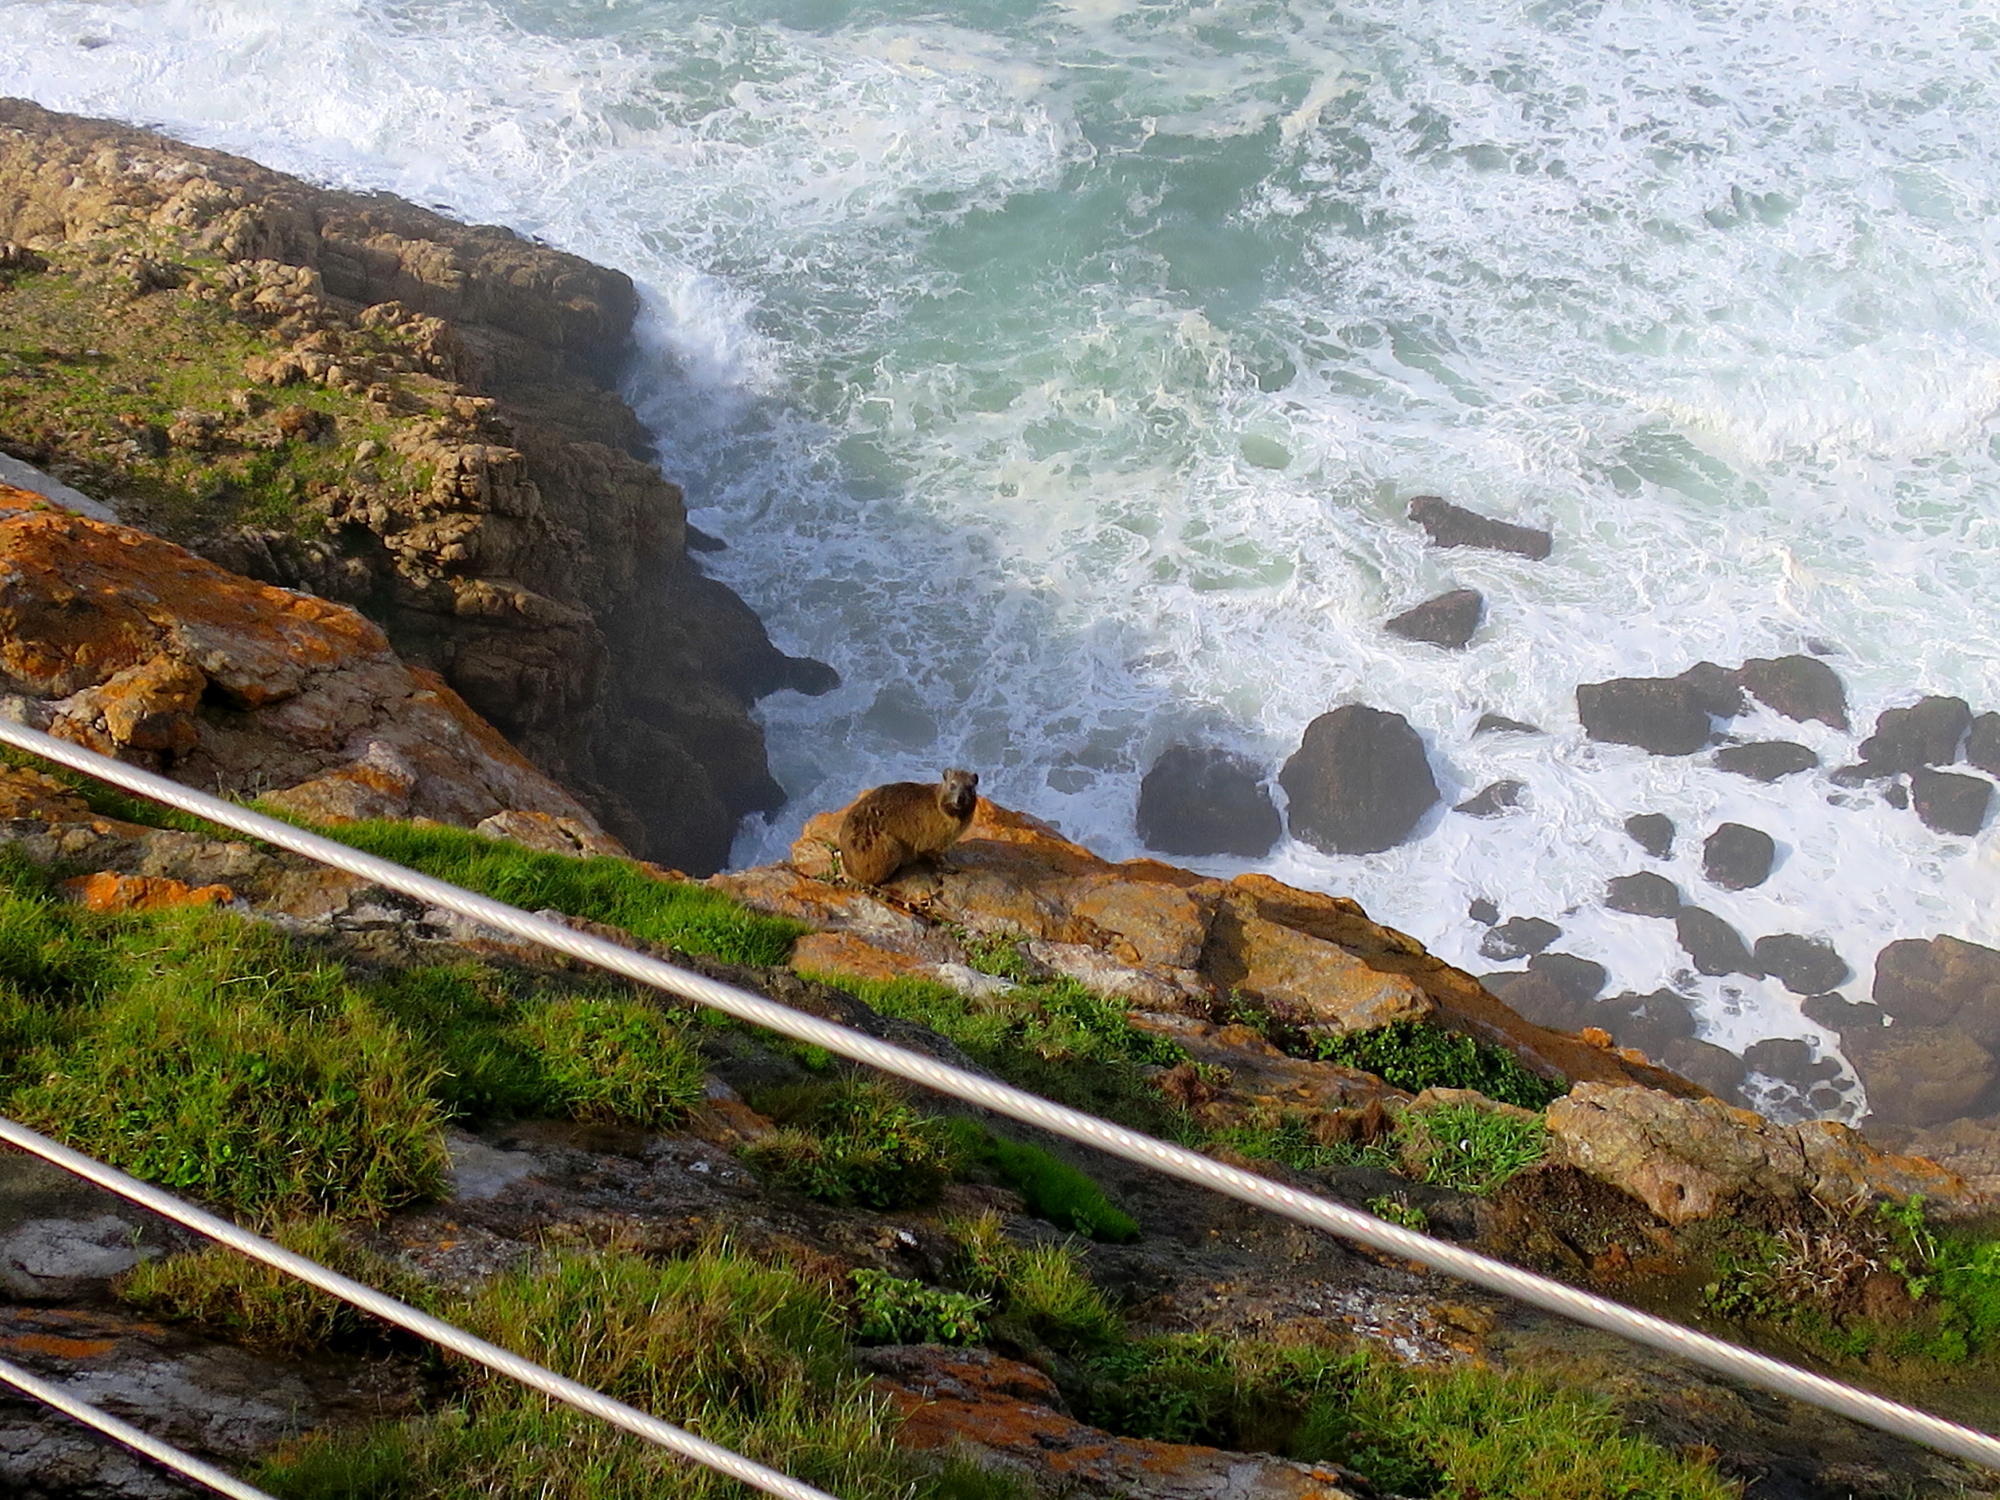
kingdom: Animalia
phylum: Chordata
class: Mammalia
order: Hyracoidea
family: Procaviidae
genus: Procavia
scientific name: Procavia capensis
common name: Rock hyrax
